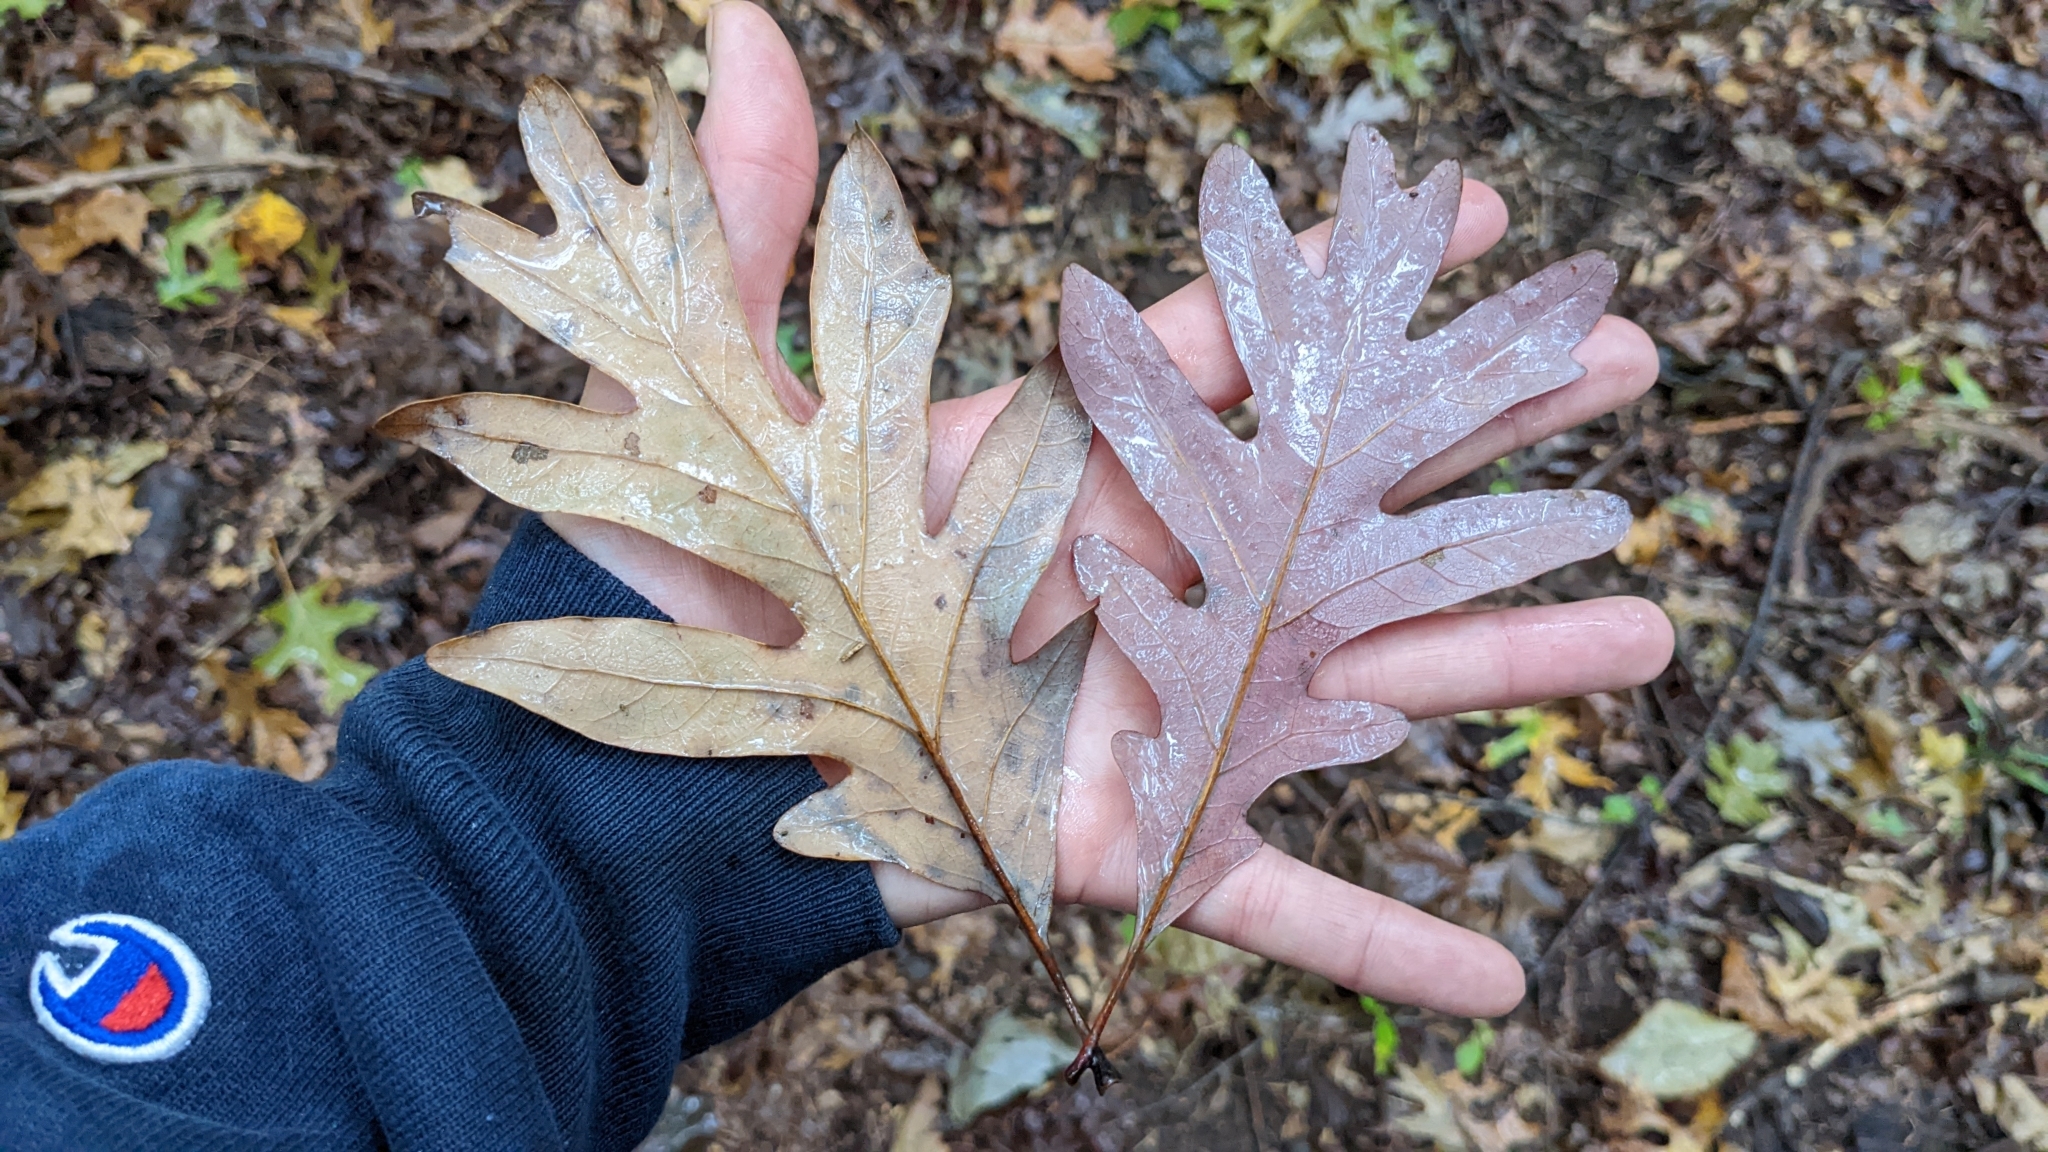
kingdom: Plantae
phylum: Tracheophyta
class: Magnoliopsida
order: Fagales
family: Fagaceae
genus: Quercus
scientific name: Quercus alba
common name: White oak
